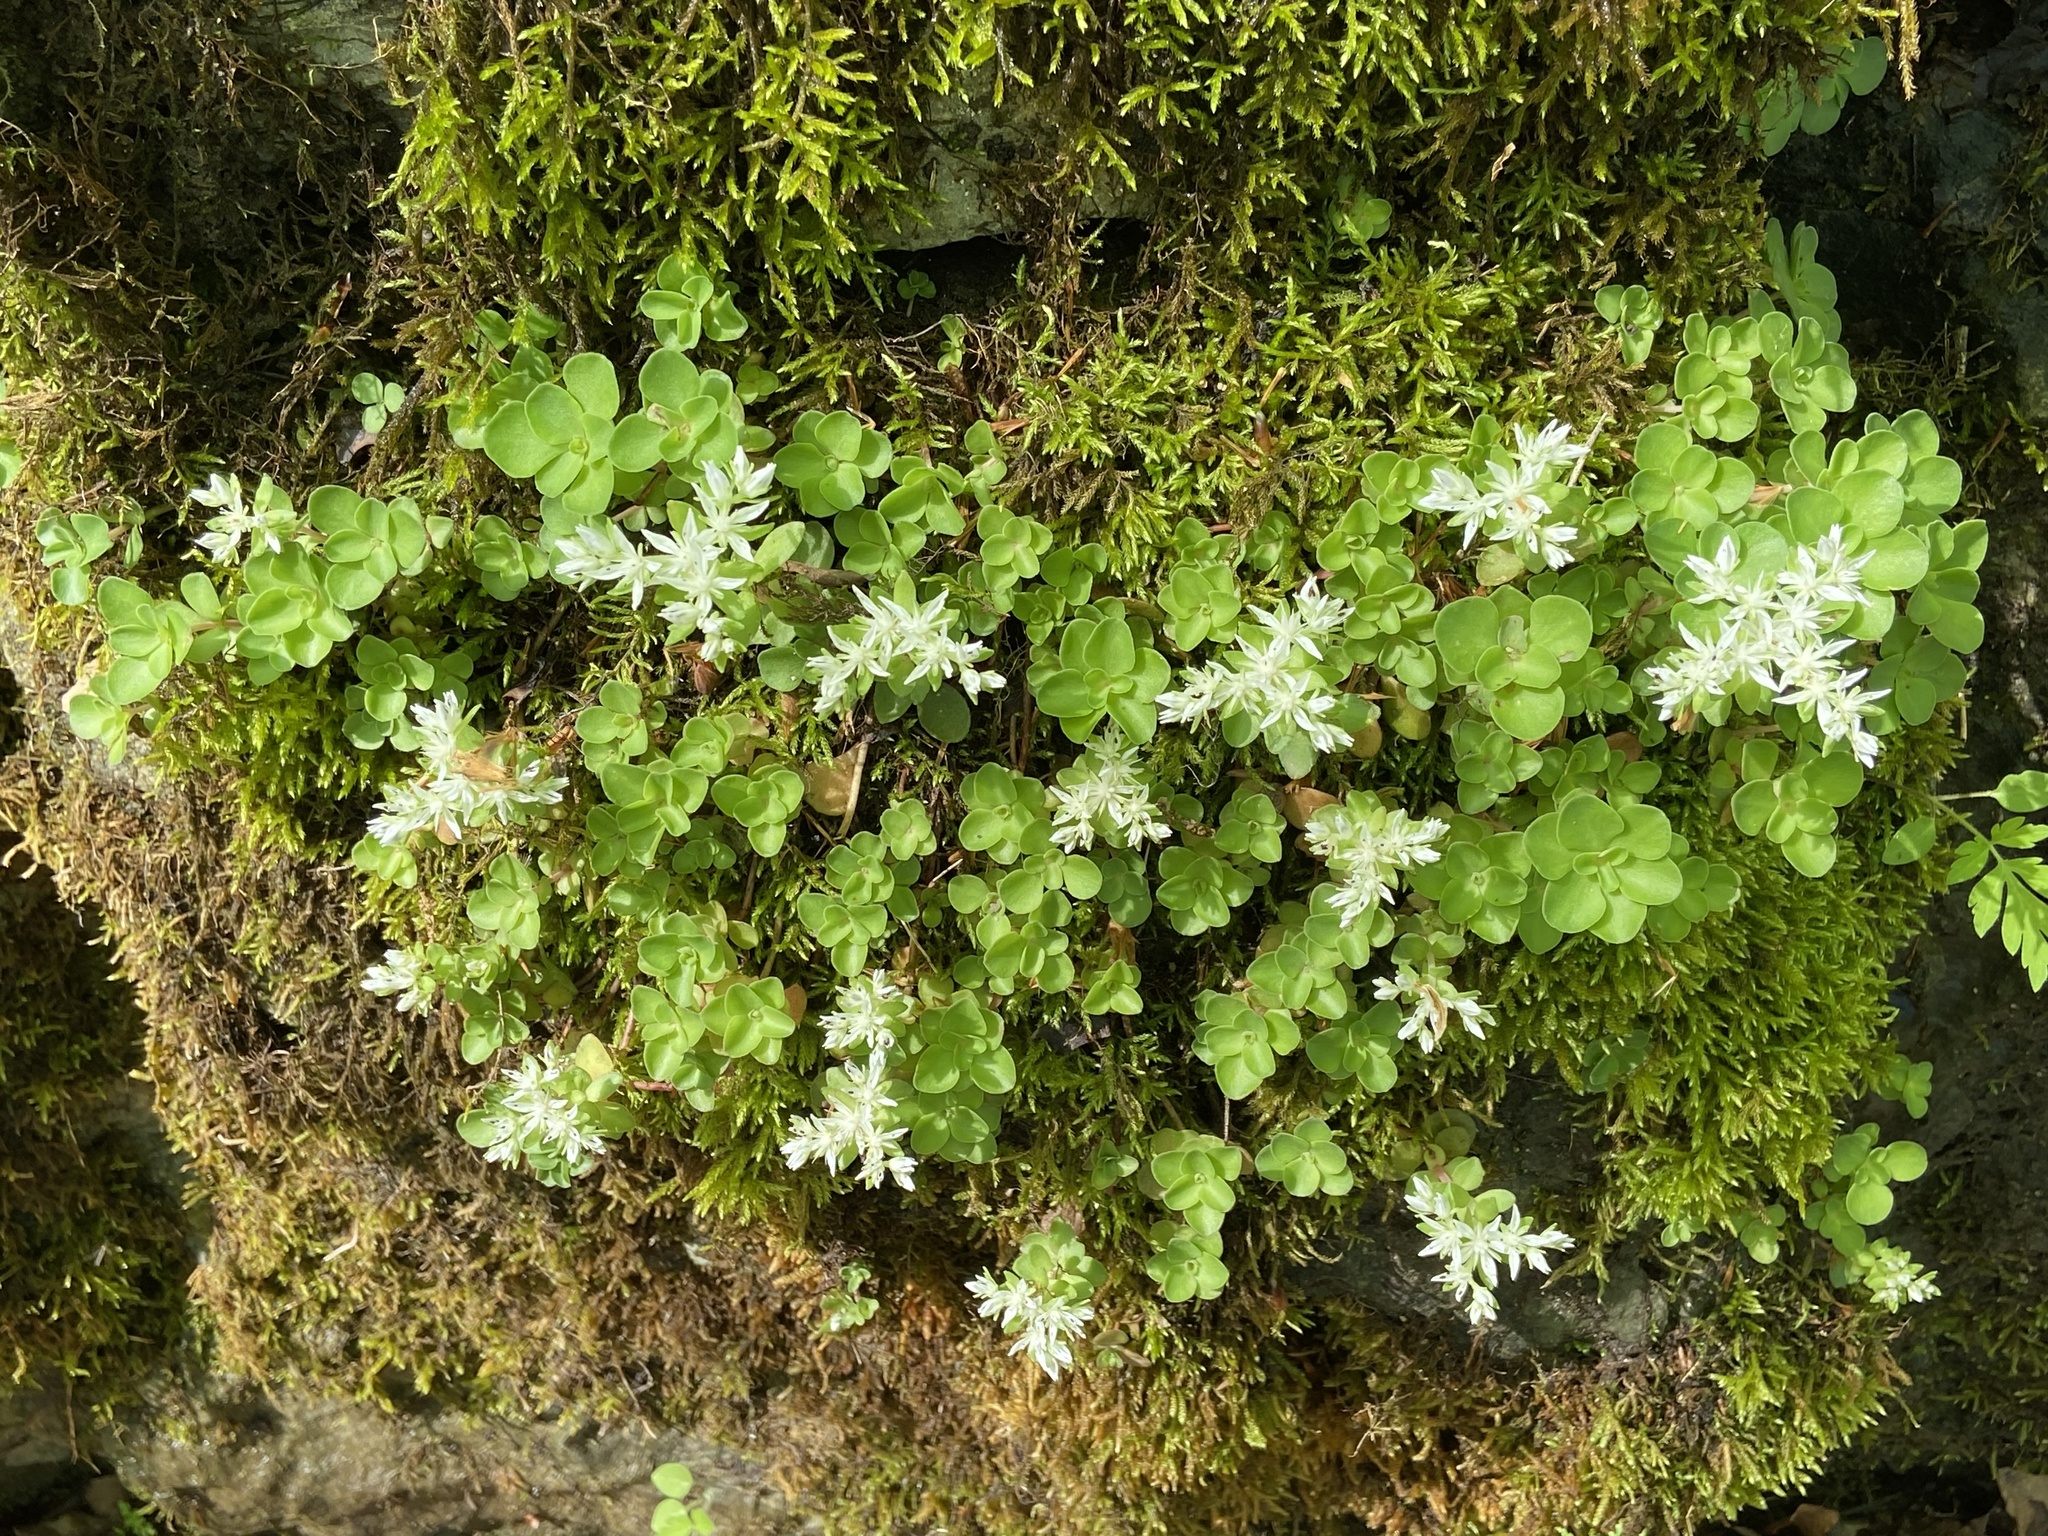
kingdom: Plantae
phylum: Tracheophyta
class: Magnoliopsida
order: Saxifragales
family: Crassulaceae
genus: Sedum
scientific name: Sedum ternatum
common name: Wild stonecrop
